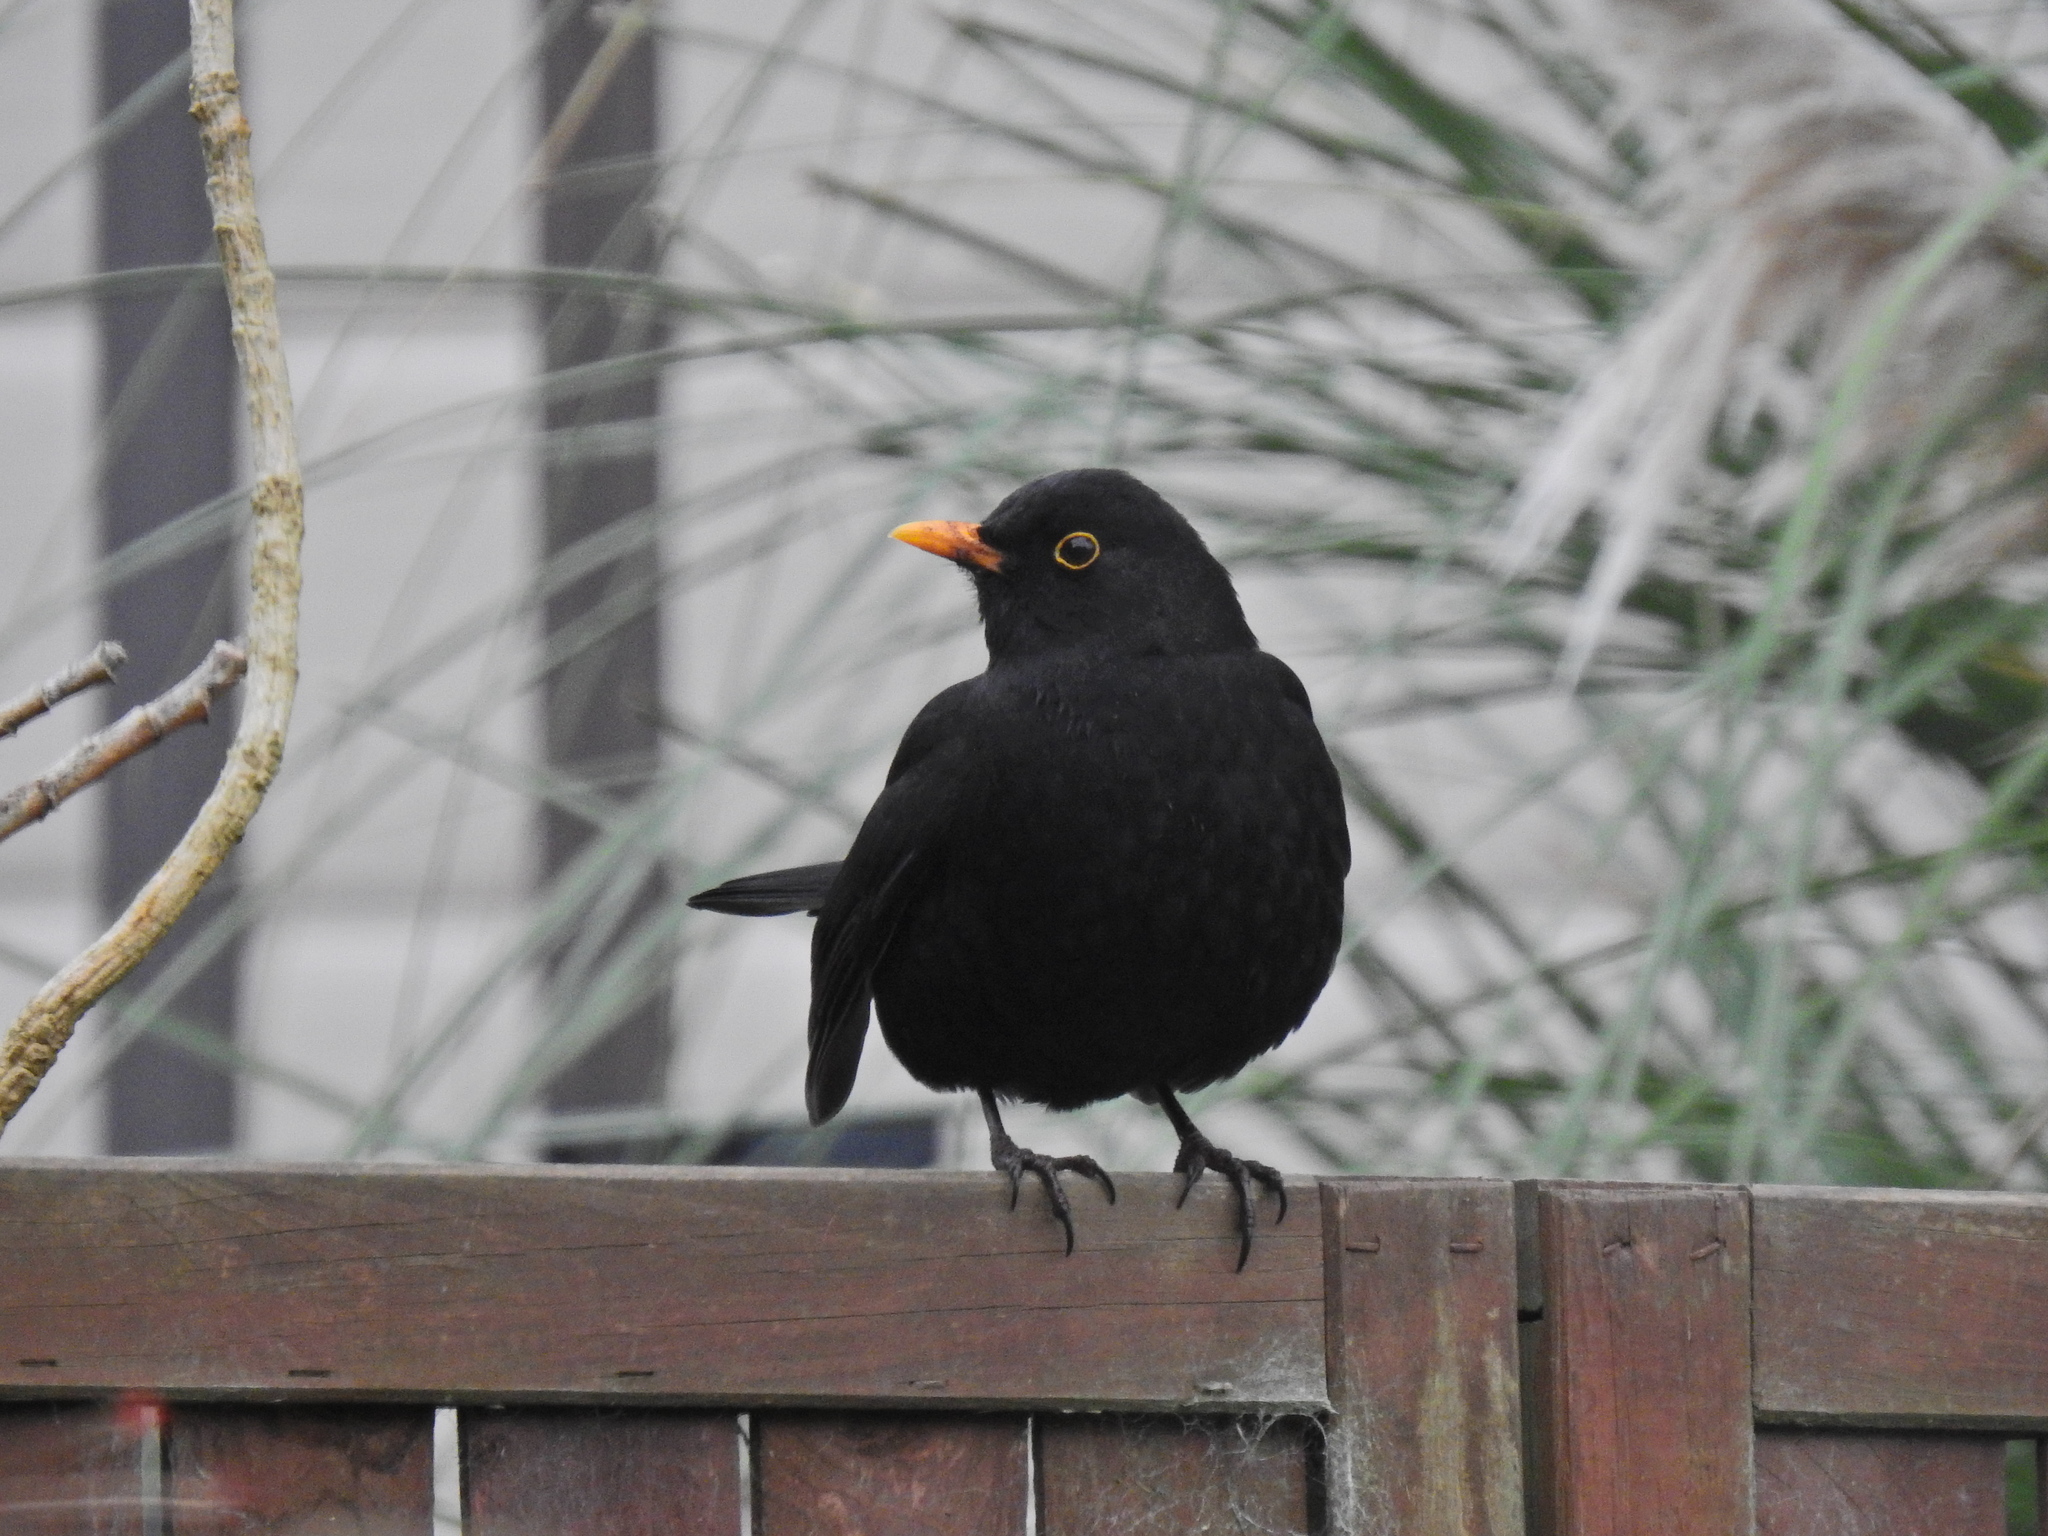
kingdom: Animalia
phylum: Chordata
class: Aves
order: Passeriformes
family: Turdidae
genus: Turdus
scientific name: Turdus merula
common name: Common blackbird
